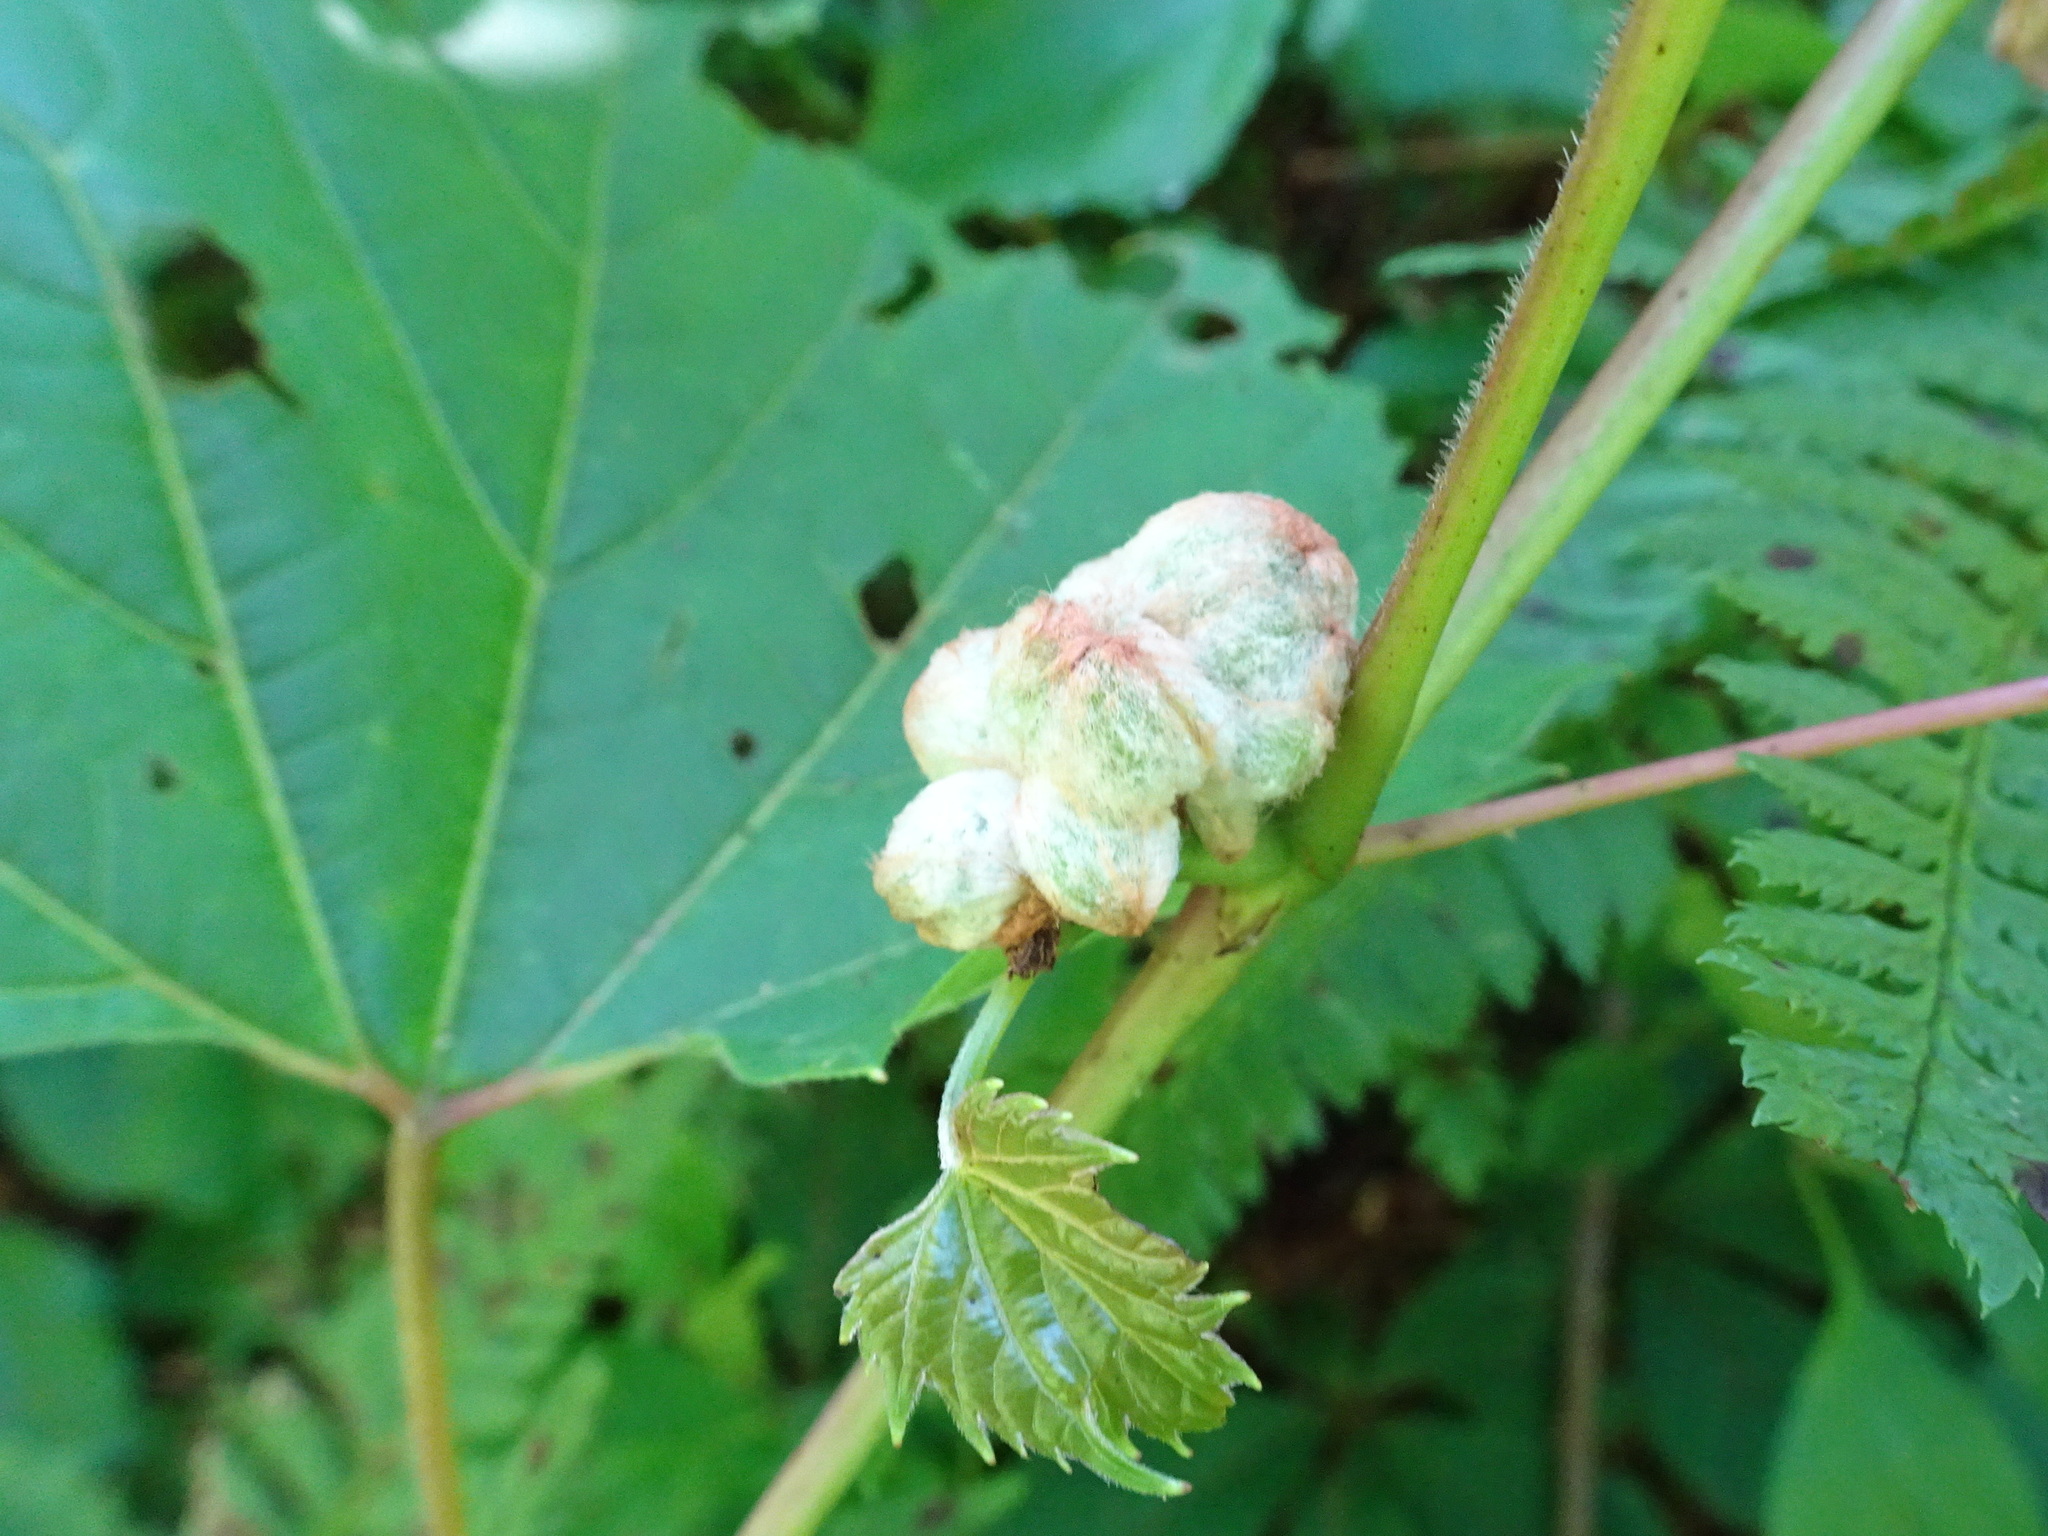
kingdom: Animalia
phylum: Arthropoda
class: Insecta
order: Diptera
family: Cecidomyiidae
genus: Ampelomyia
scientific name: Ampelomyia vitiscoryloides
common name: Grape filbert gall
